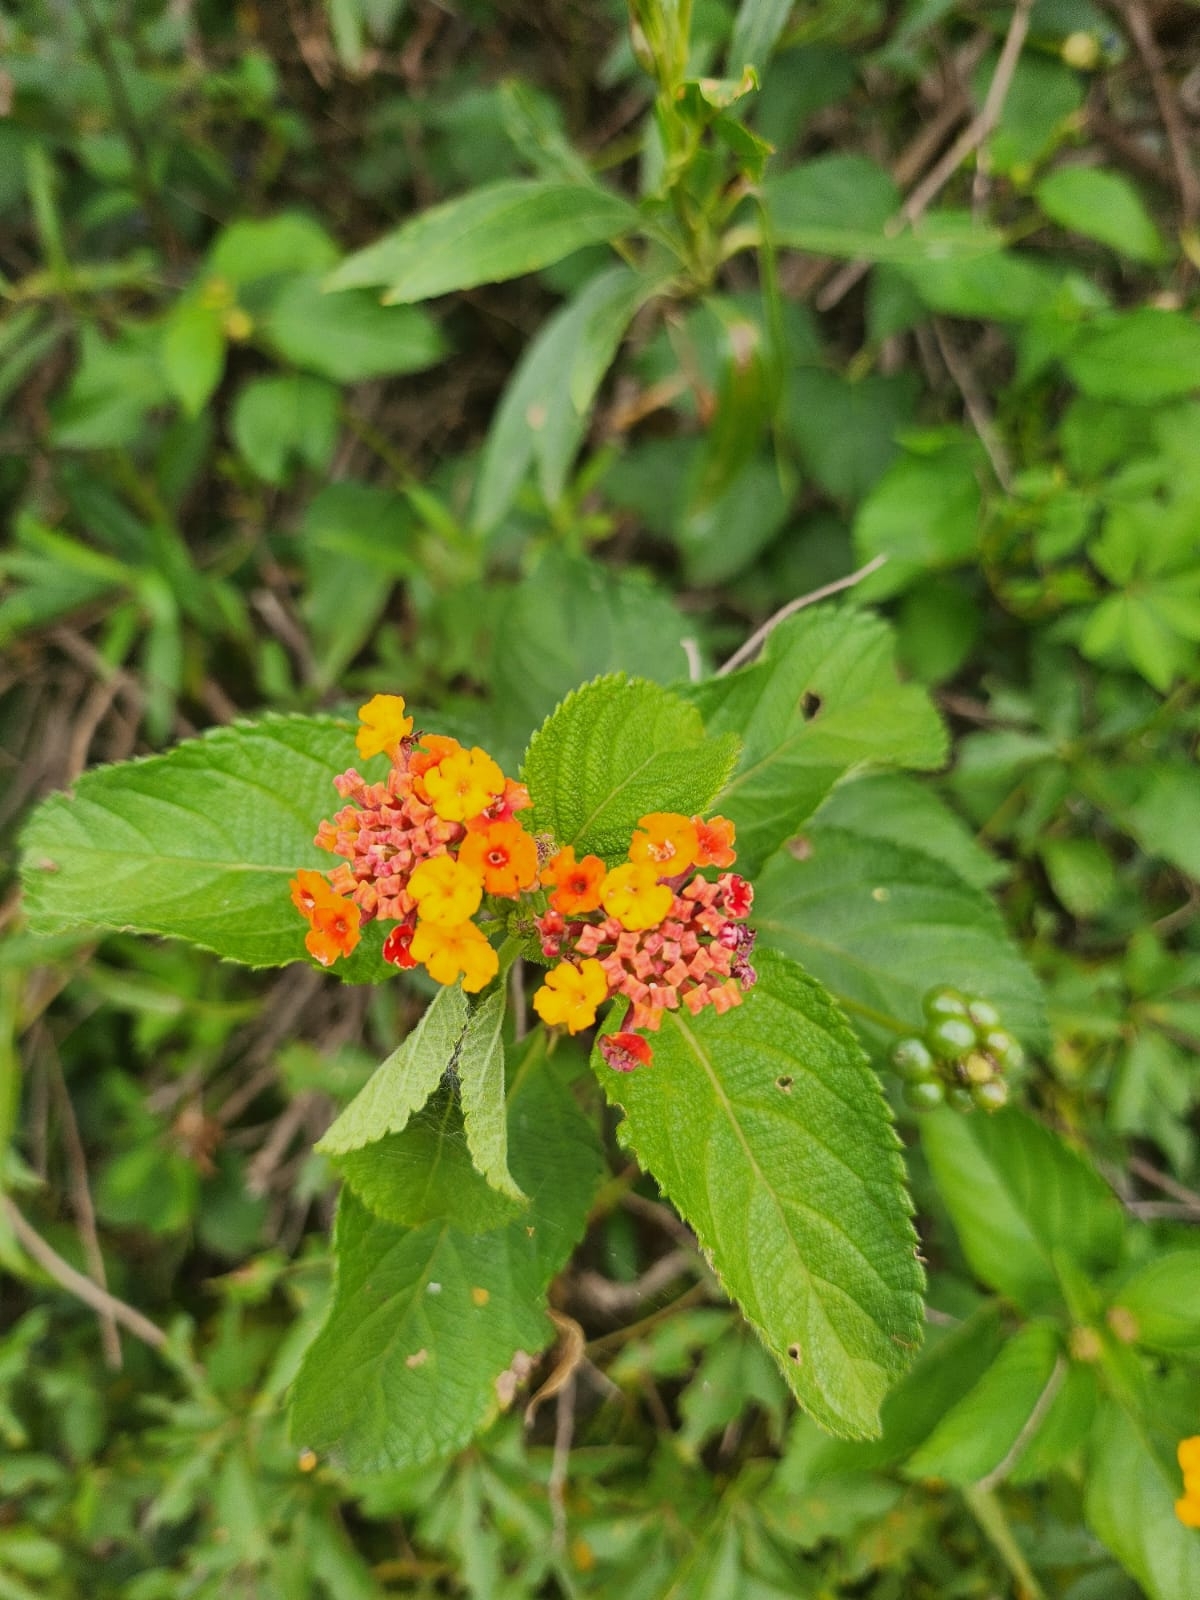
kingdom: Plantae
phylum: Tracheophyta
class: Magnoliopsida
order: Lamiales
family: Verbenaceae
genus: Lantana
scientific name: Lantana camara
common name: Lantana
